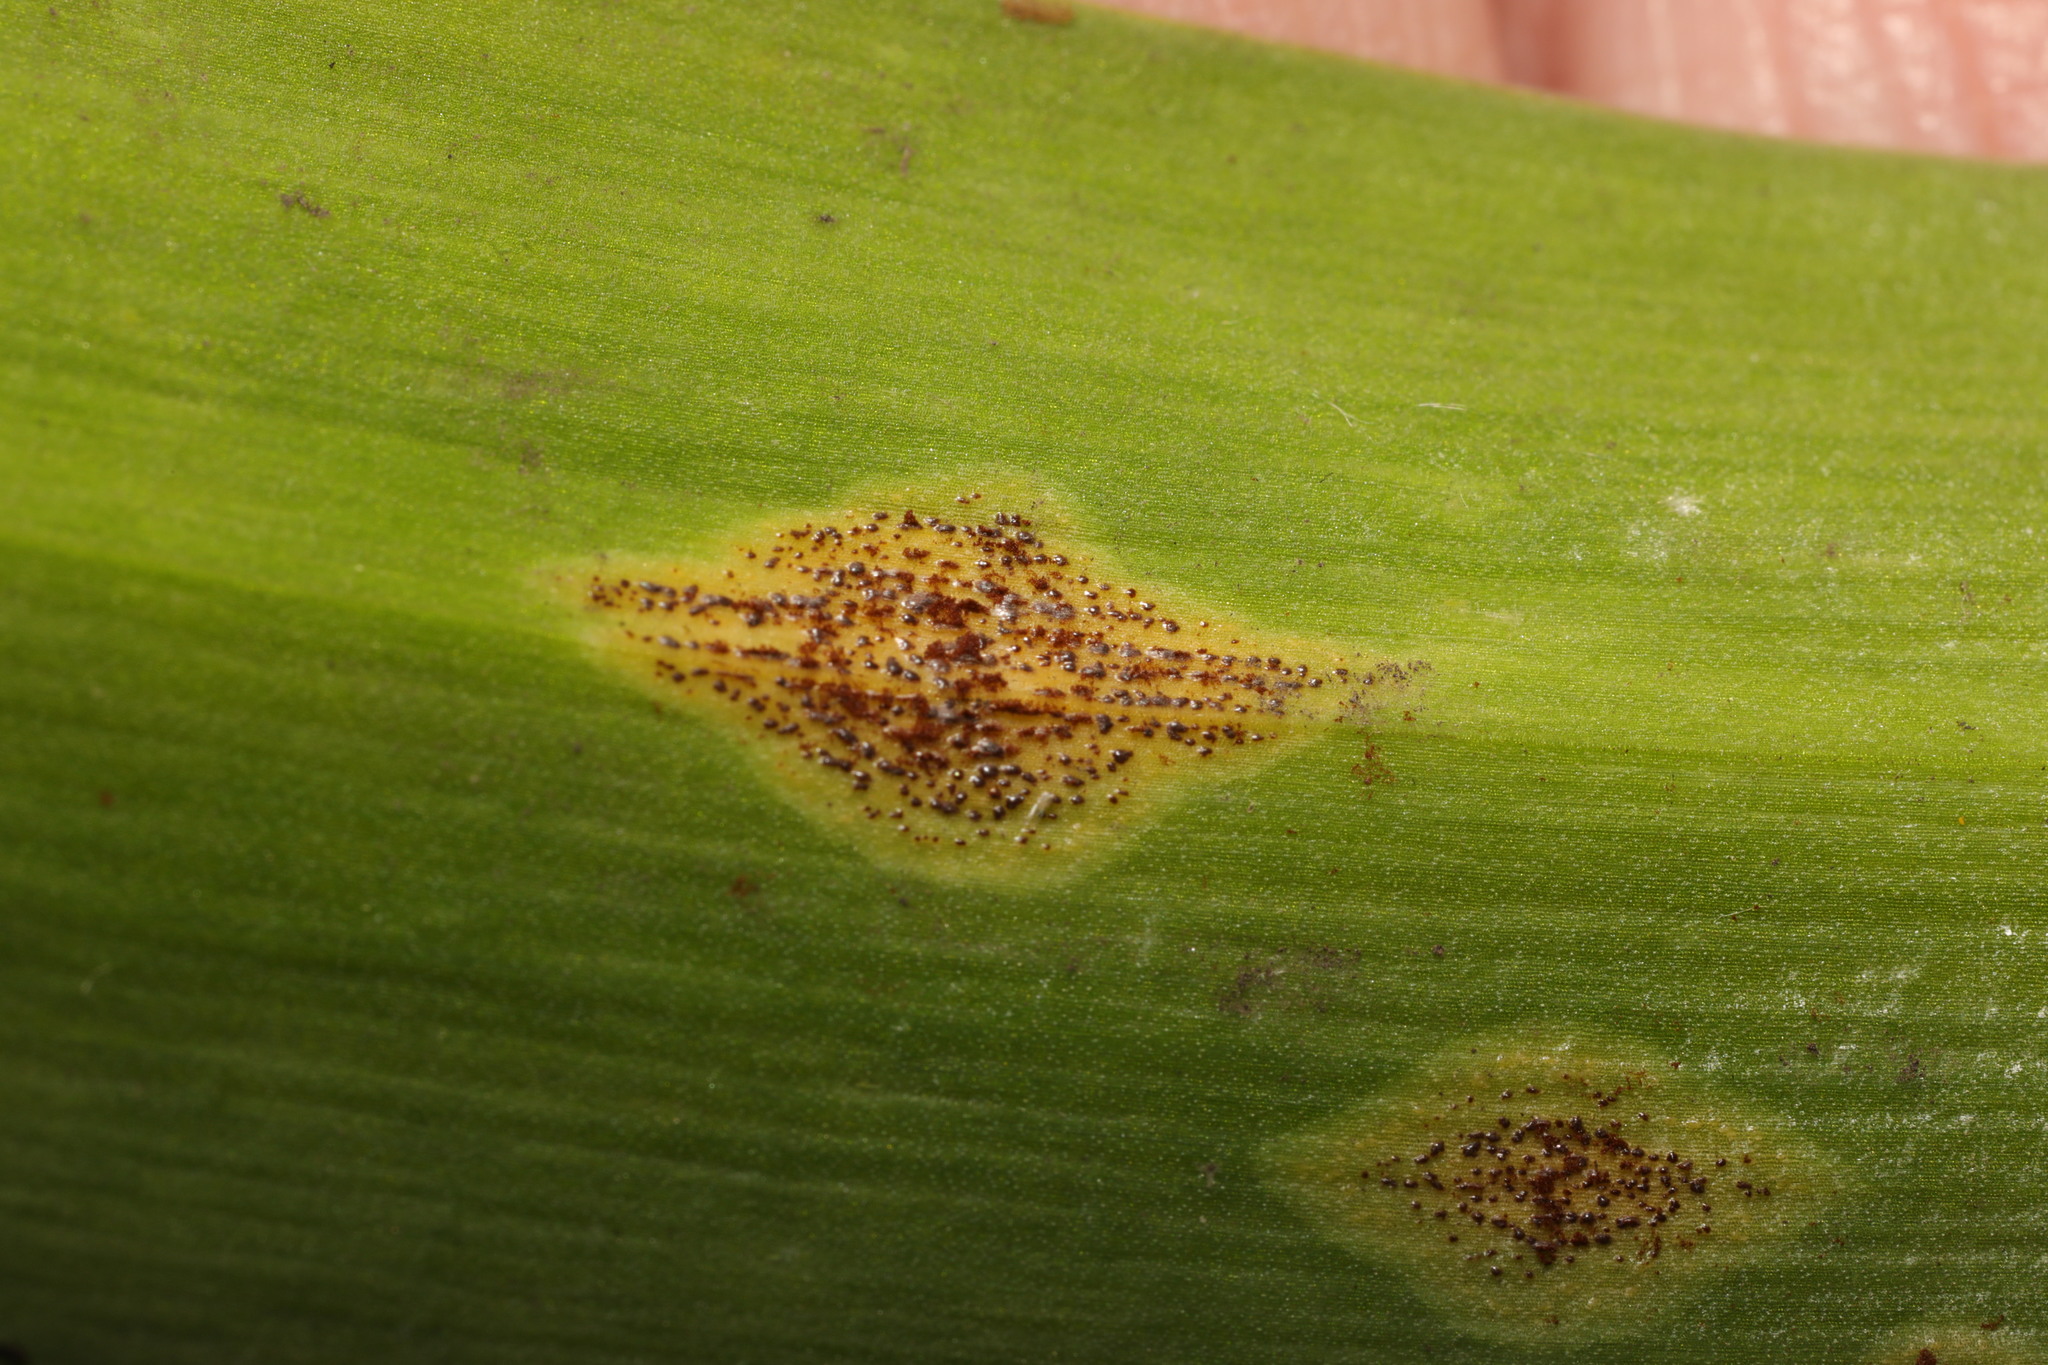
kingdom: Fungi
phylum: Basidiomycota
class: Pucciniomycetes
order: Pucciniales
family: Pucciniaceae
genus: Uromyces
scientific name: Uromyces hyacinthi
